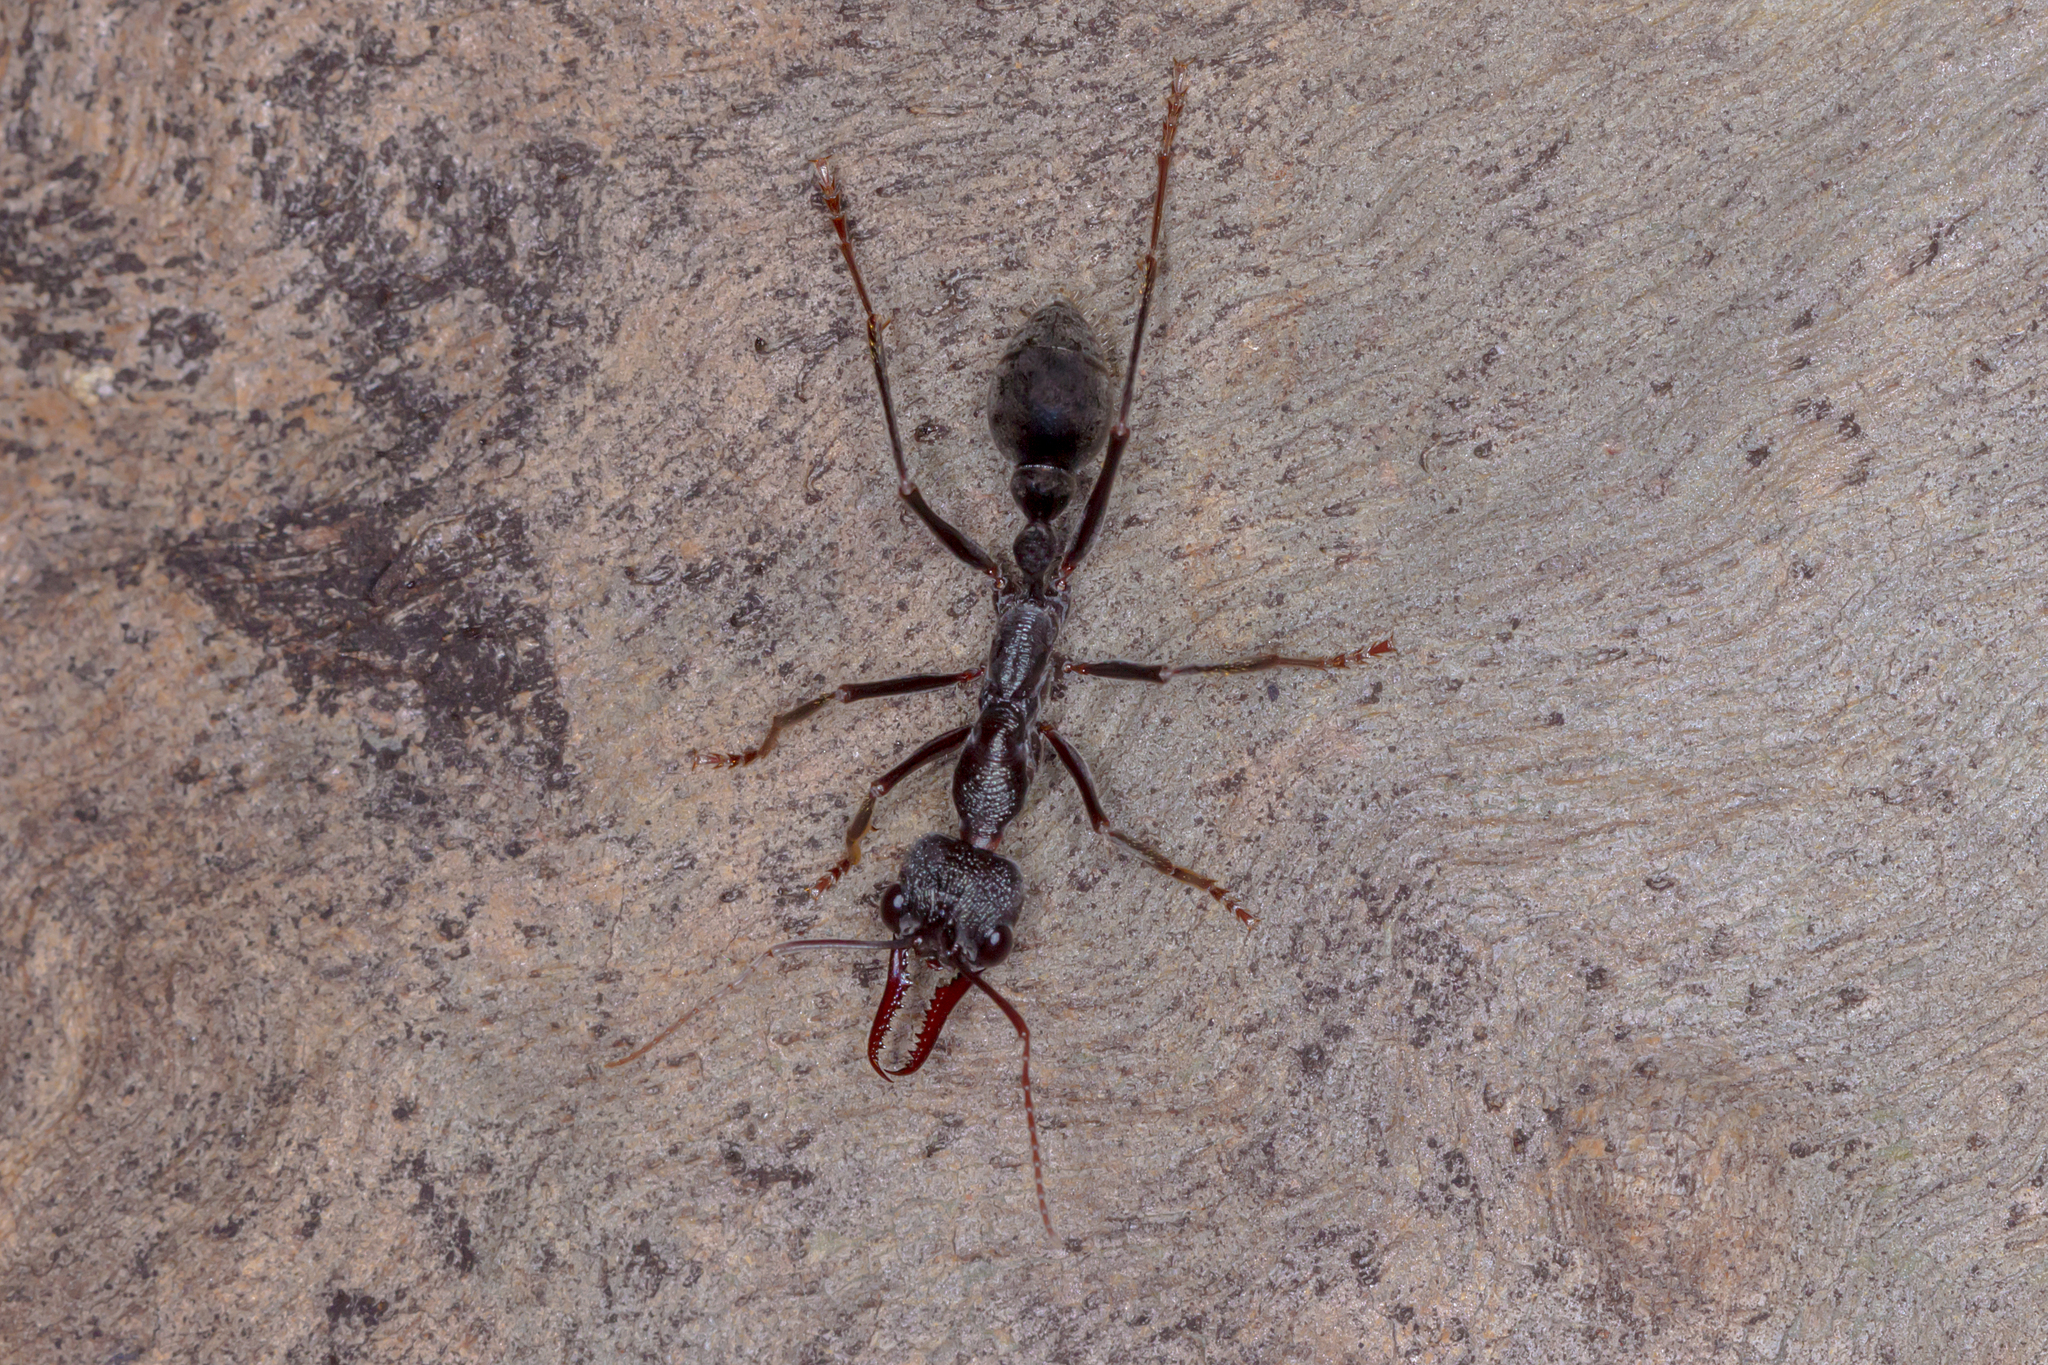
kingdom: Animalia
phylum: Arthropoda
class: Insecta
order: Hymenoptera
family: Formicidae
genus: Myrmecia
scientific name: Myrmecia pyriformis
